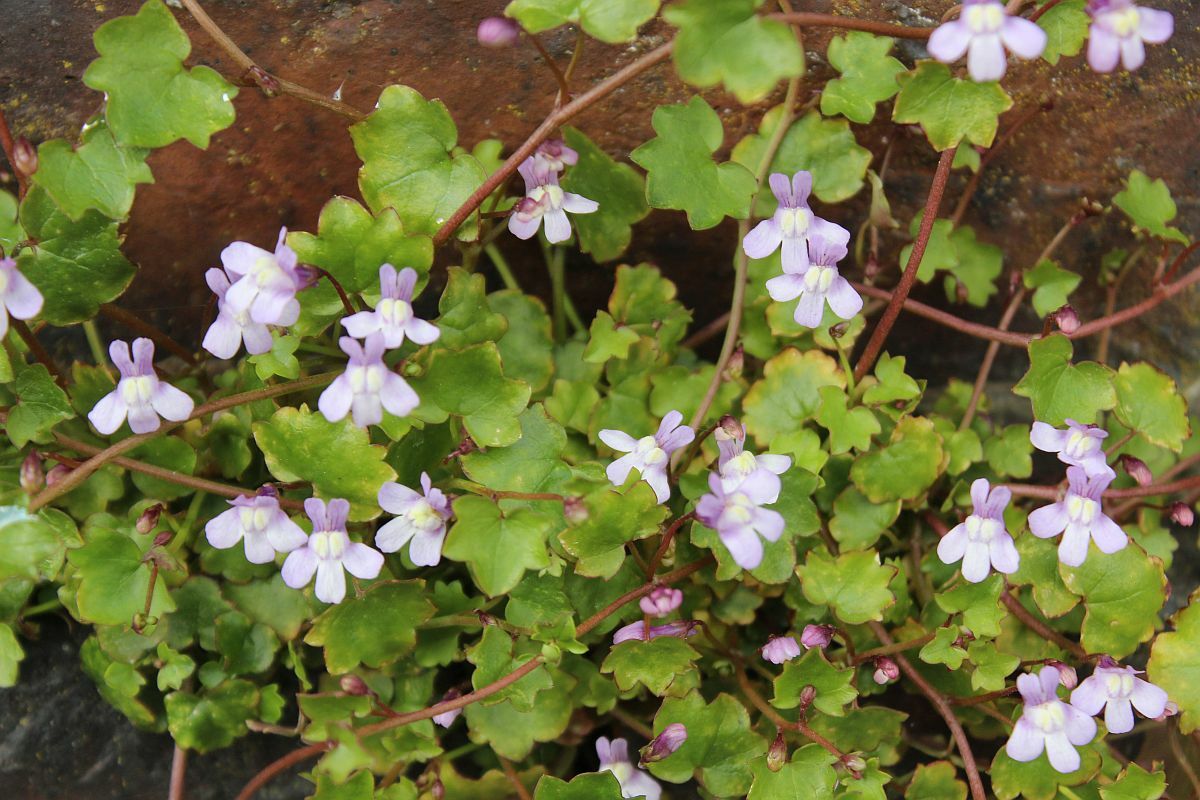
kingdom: Plantae
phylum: Tracheophyta
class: Magnoliopsida
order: Lamiales
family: Plantaginaceae
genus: Cymbalaria
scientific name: Cymbalaria muralis
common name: Ivy-leaved toadflax
